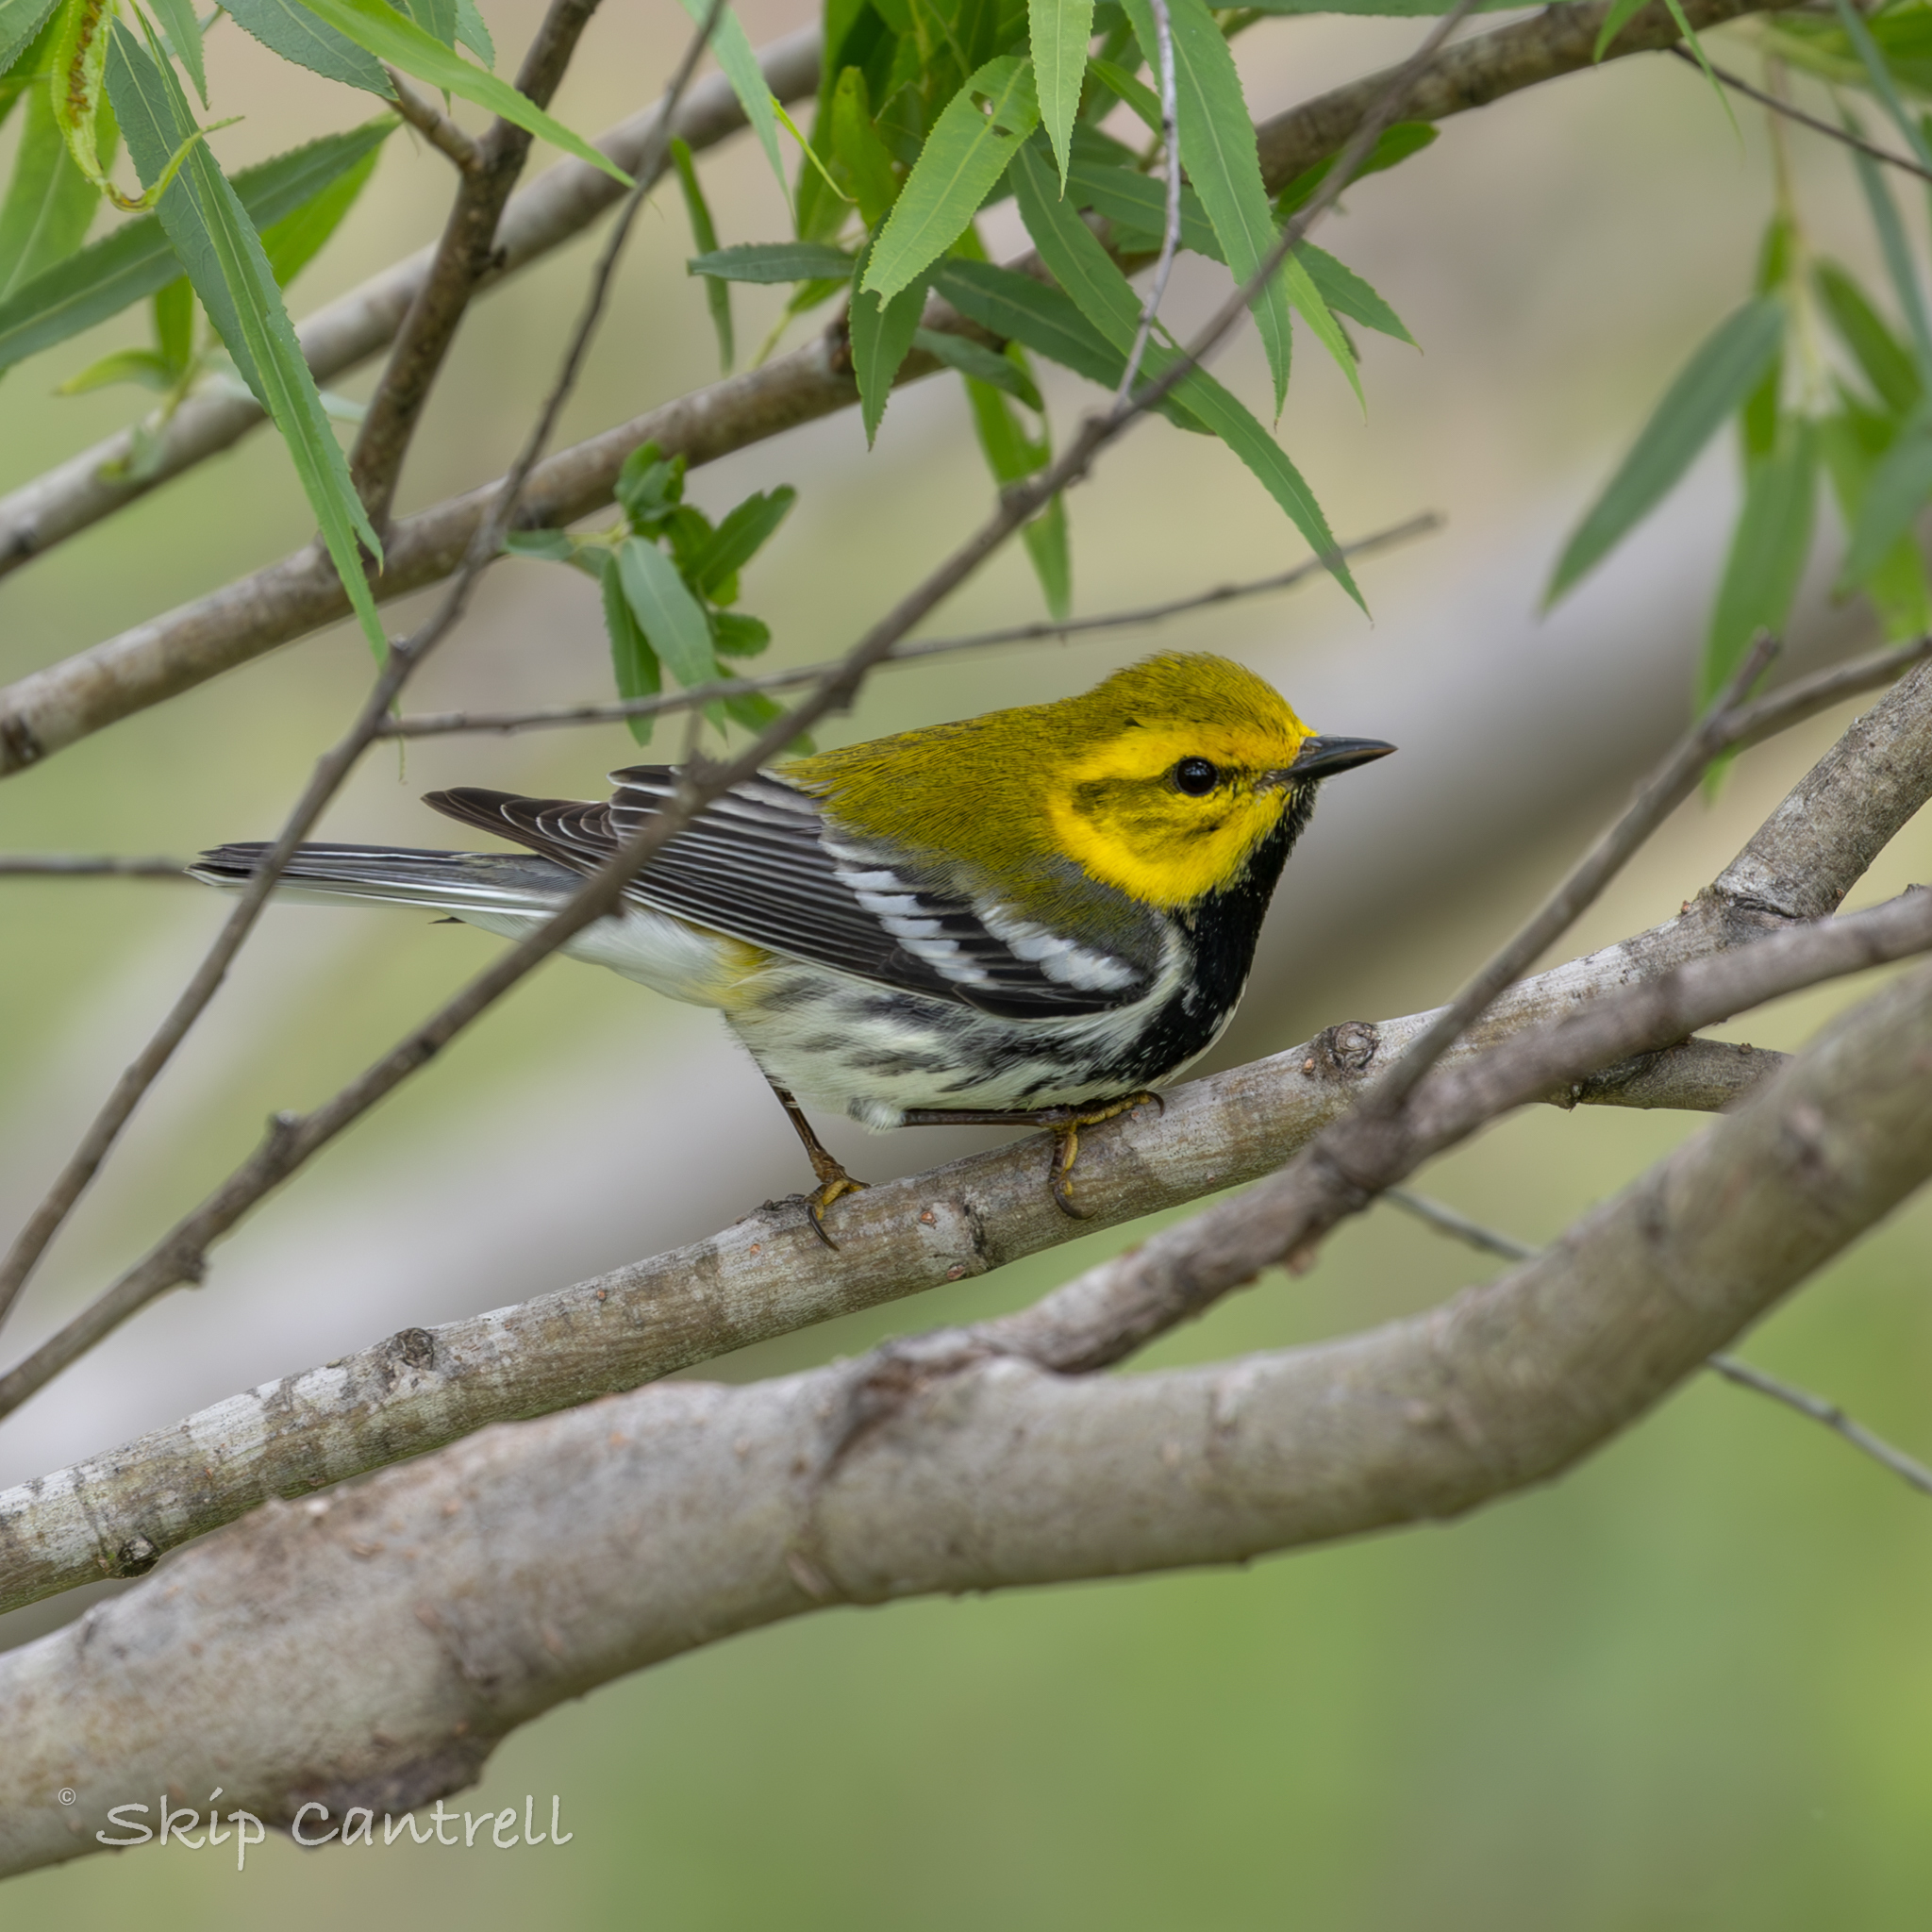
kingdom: Animalia
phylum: Chordata
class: Aves
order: Passeriformes
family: Parulidae
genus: Setophaga
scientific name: Setophaga virens
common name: Black-throated green warbler
